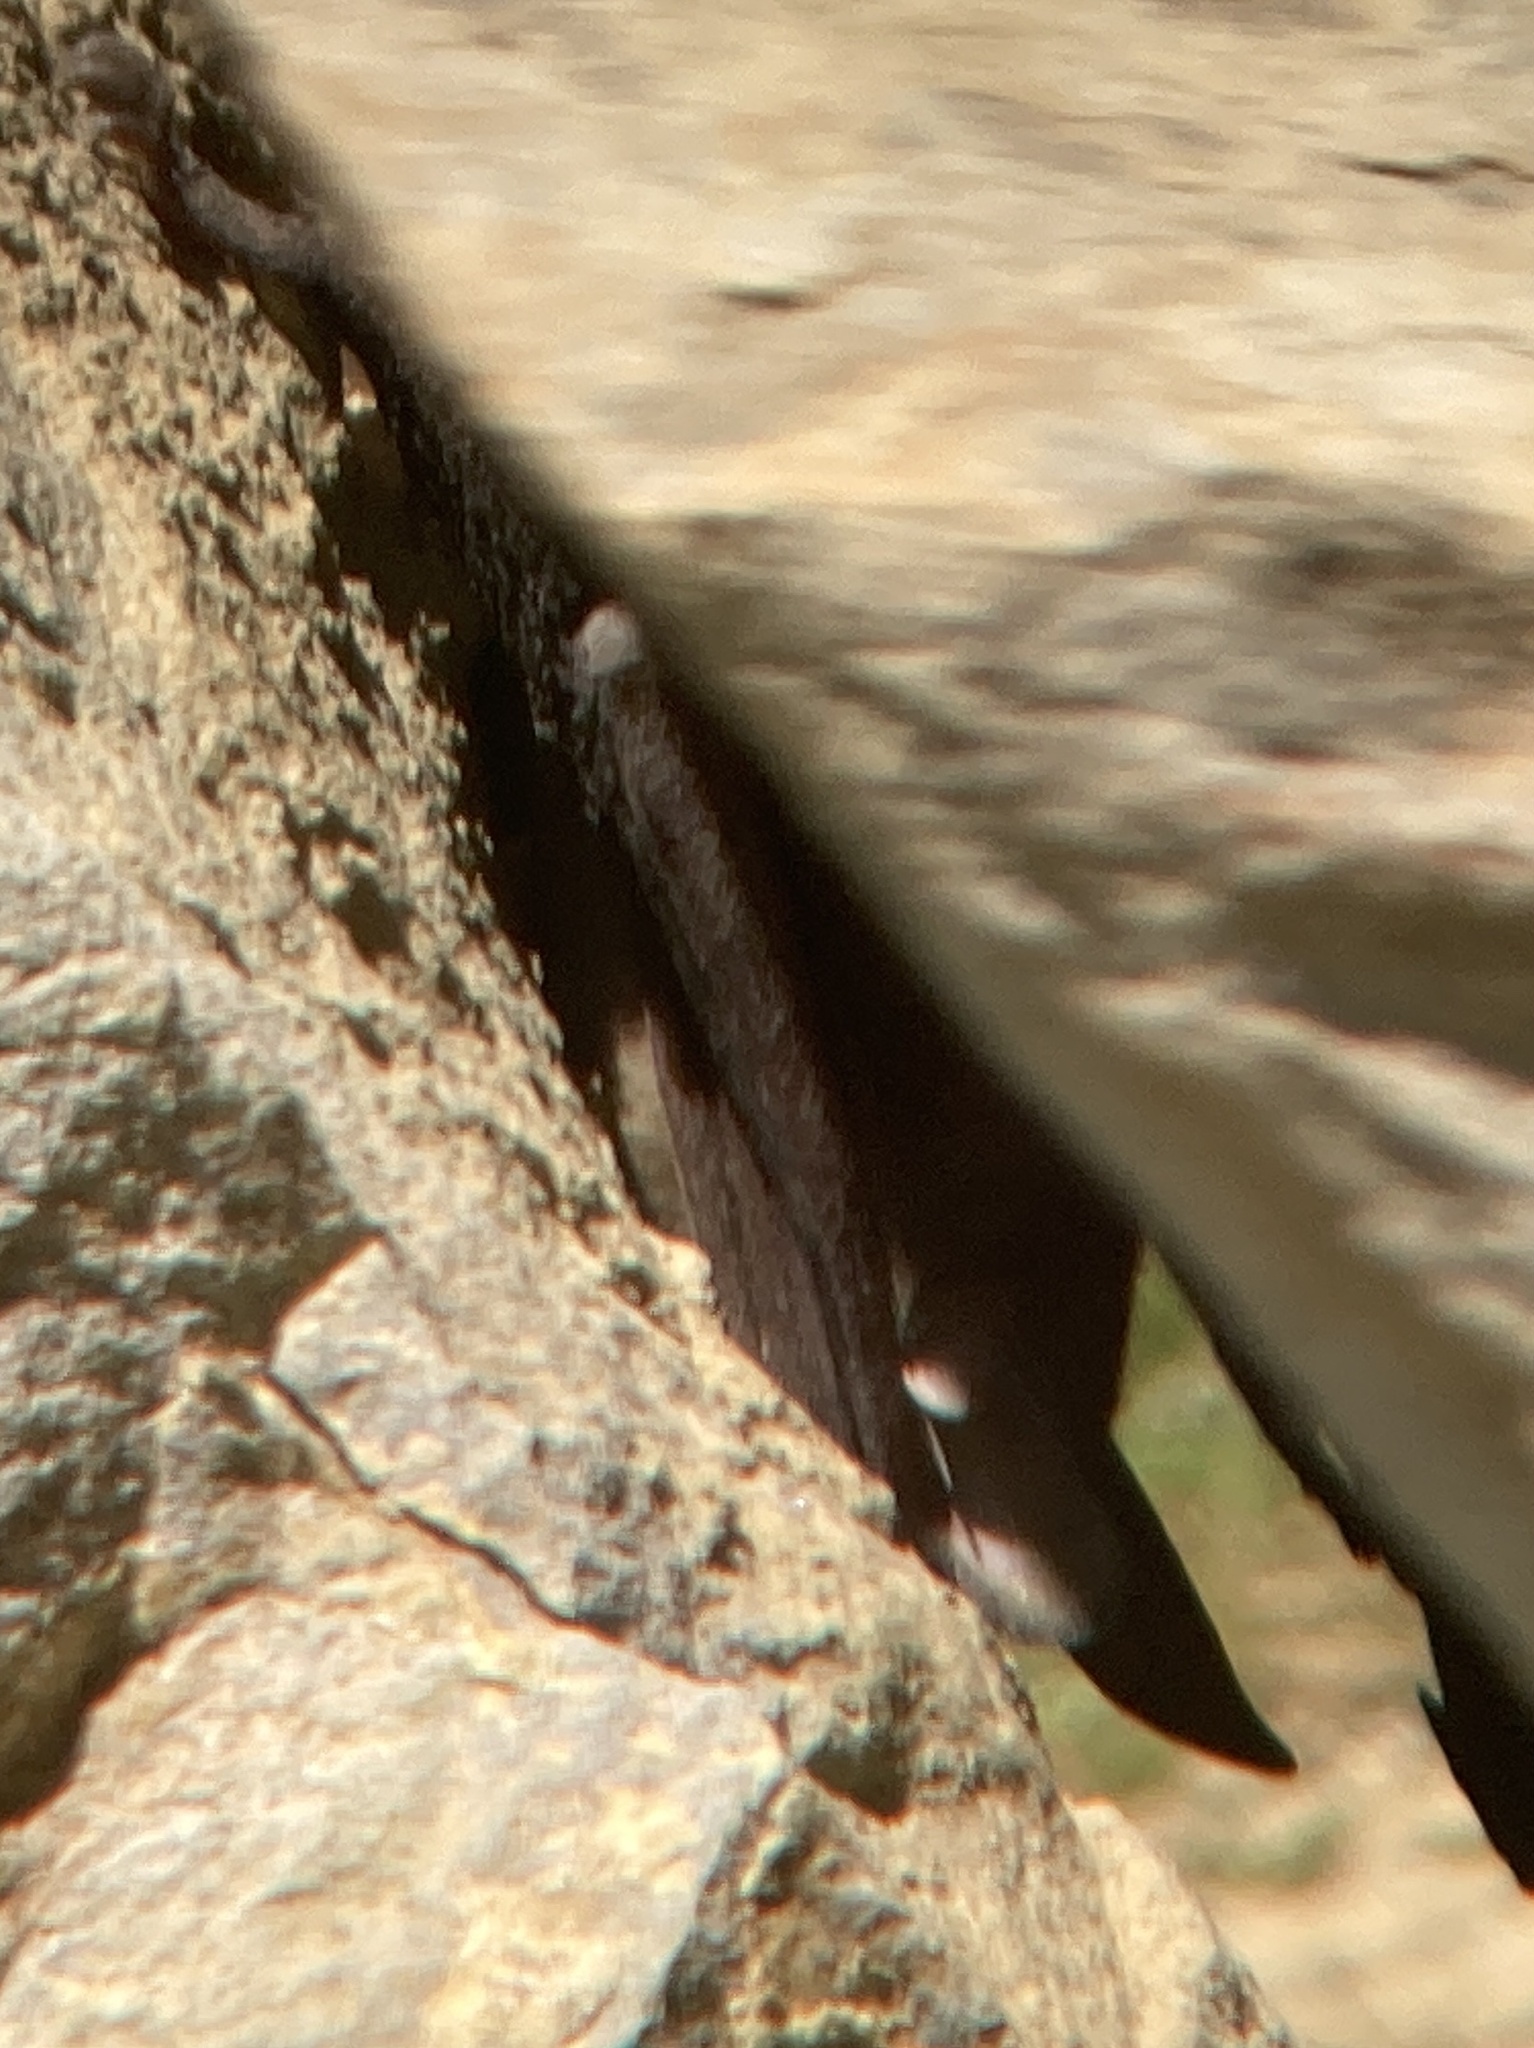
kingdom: Animalia
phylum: Chordata
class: Mammalia
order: Chiroptera
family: Vespertilionidae
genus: Antrozous
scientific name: Antrozous pallidus
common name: Pallid bat
